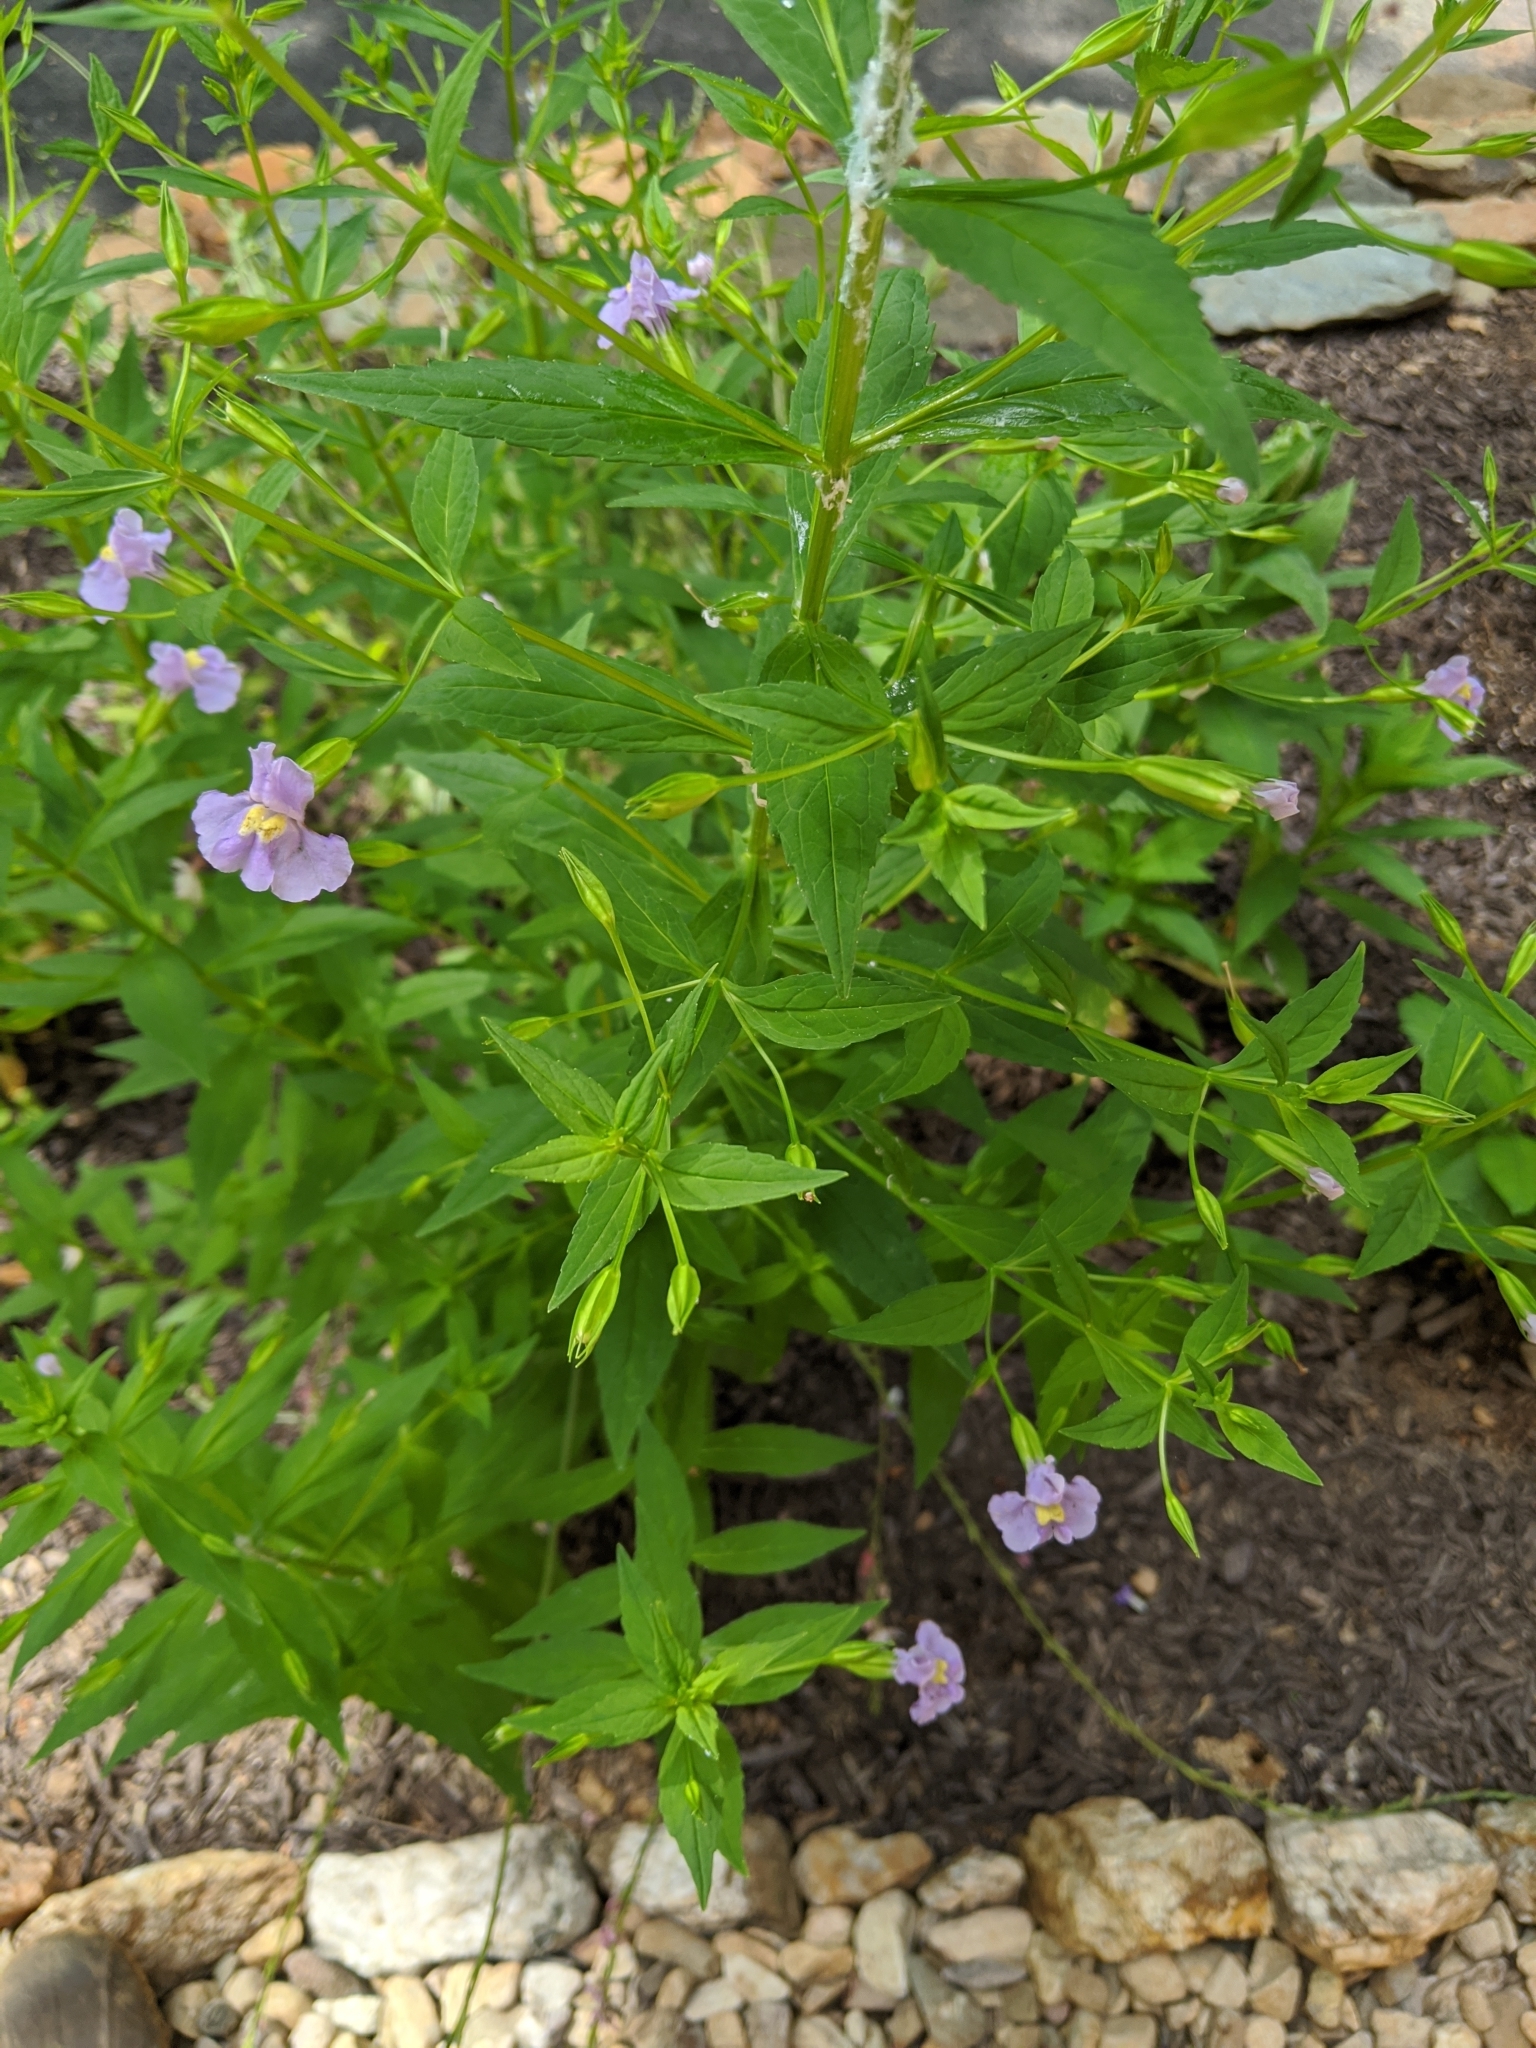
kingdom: Plantae
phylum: Tracheophyta
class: Magnoliopsida
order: Lamiales
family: Phrymaceae
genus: Mimulus
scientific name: Mimulus ringens
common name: Allegheny monkeyflower
